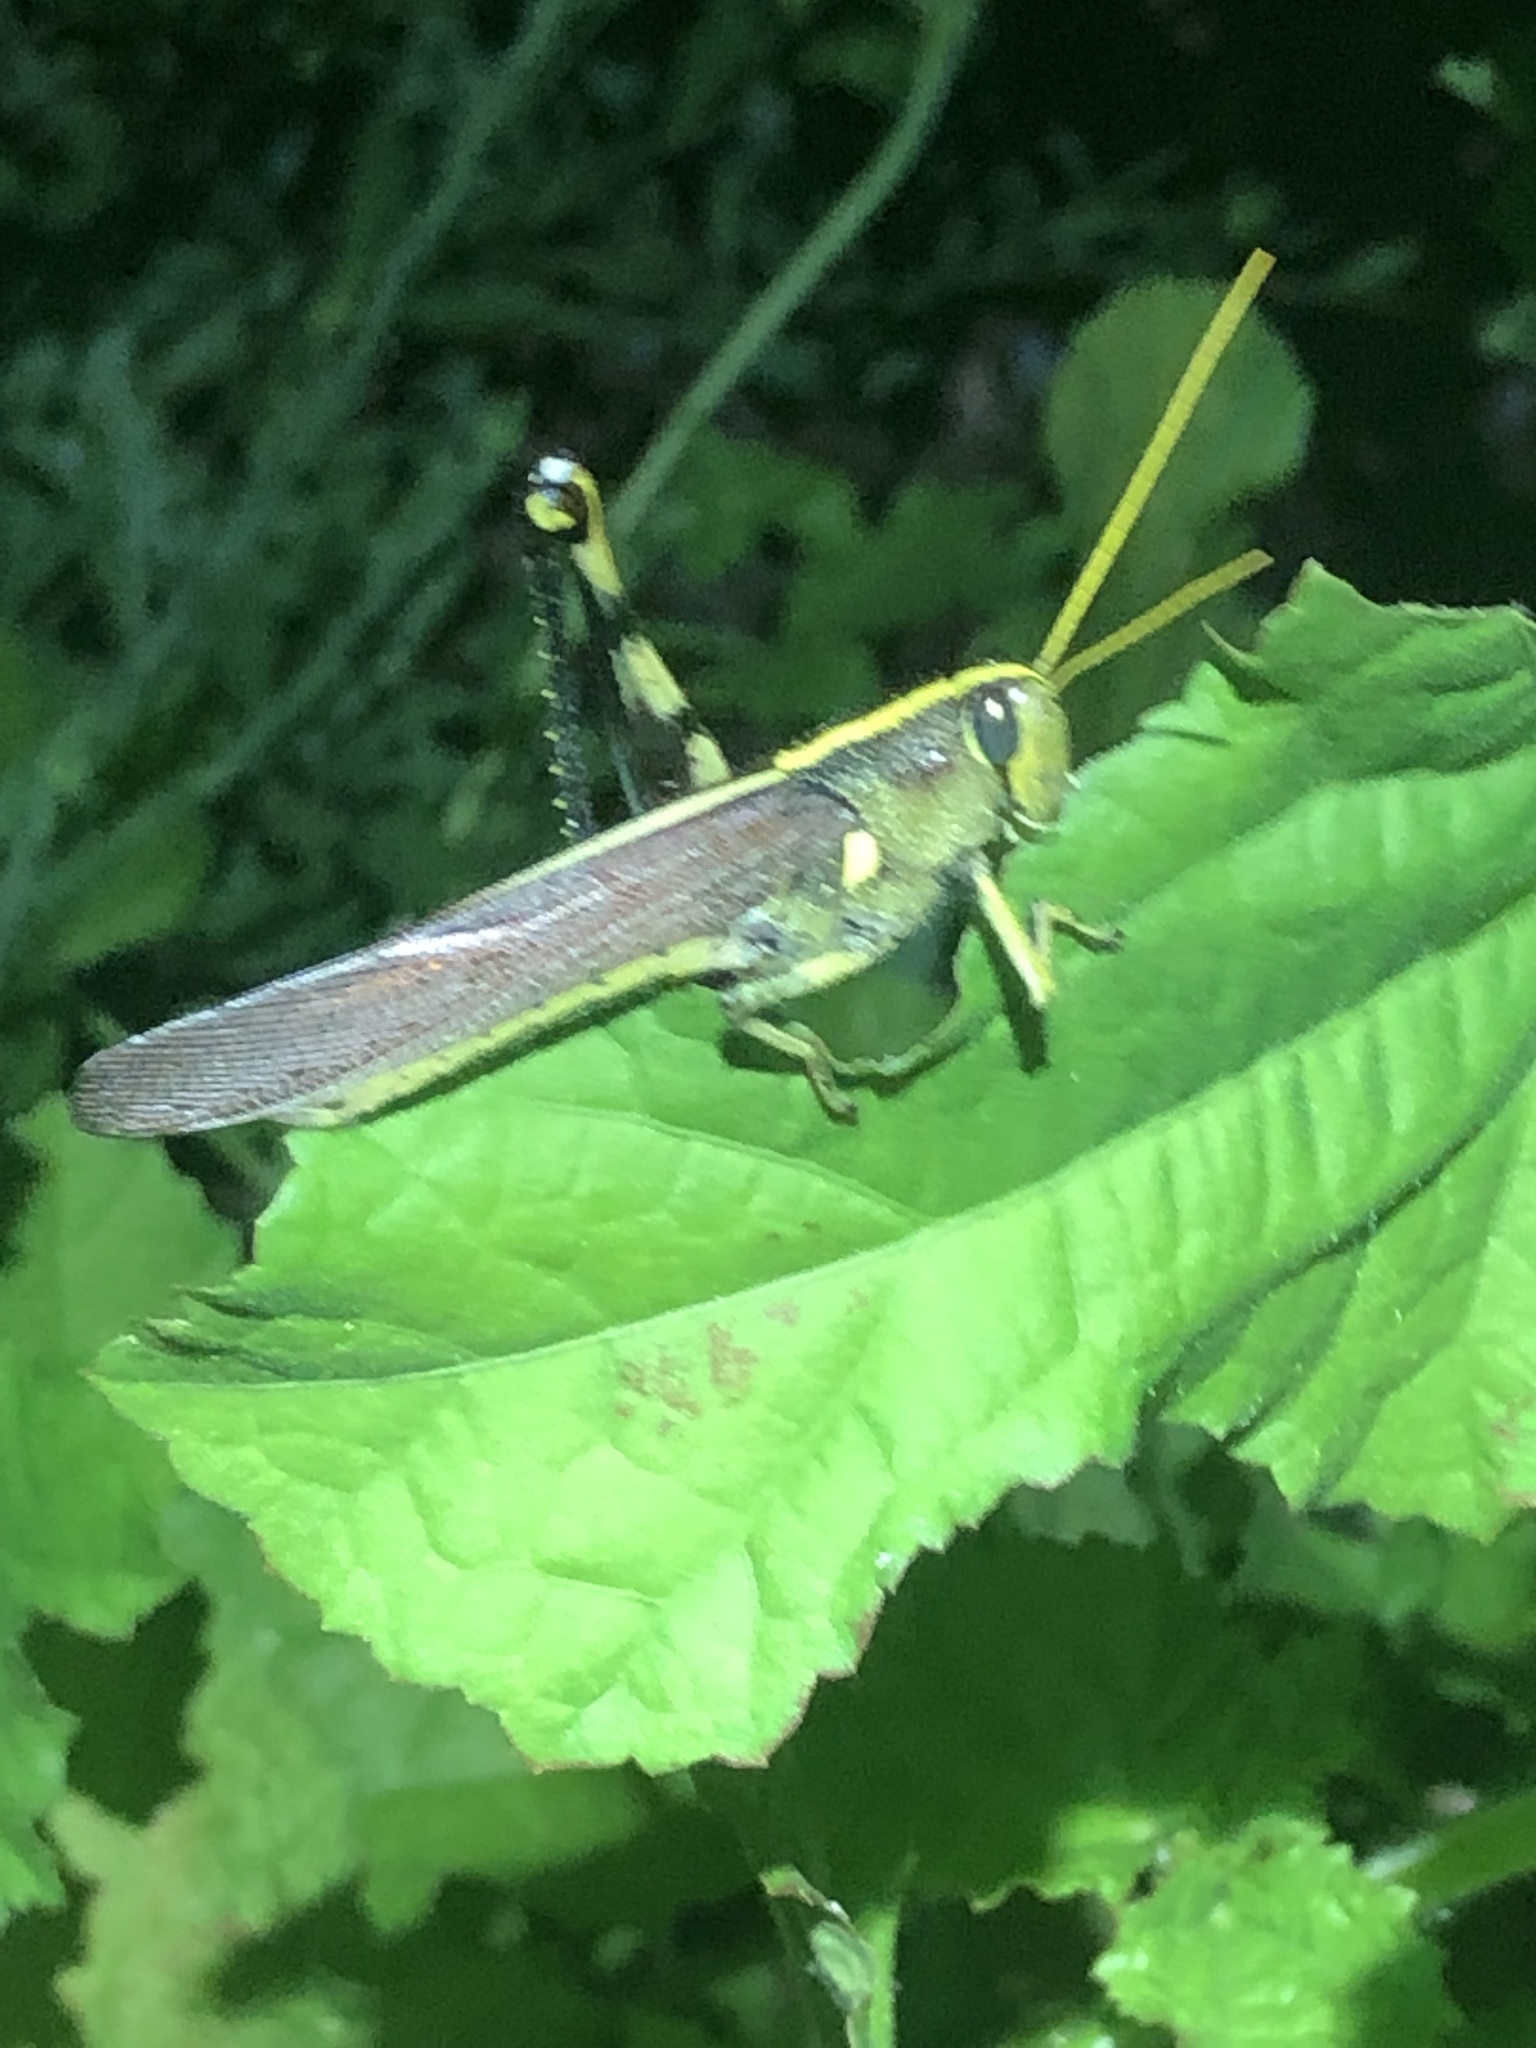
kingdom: Animalia
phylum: Arthropoda
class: Insecta
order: Orthoptera
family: Acrididae
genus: Schistocerca
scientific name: Schistocerca obscura
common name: Obscure bird grasshopper
